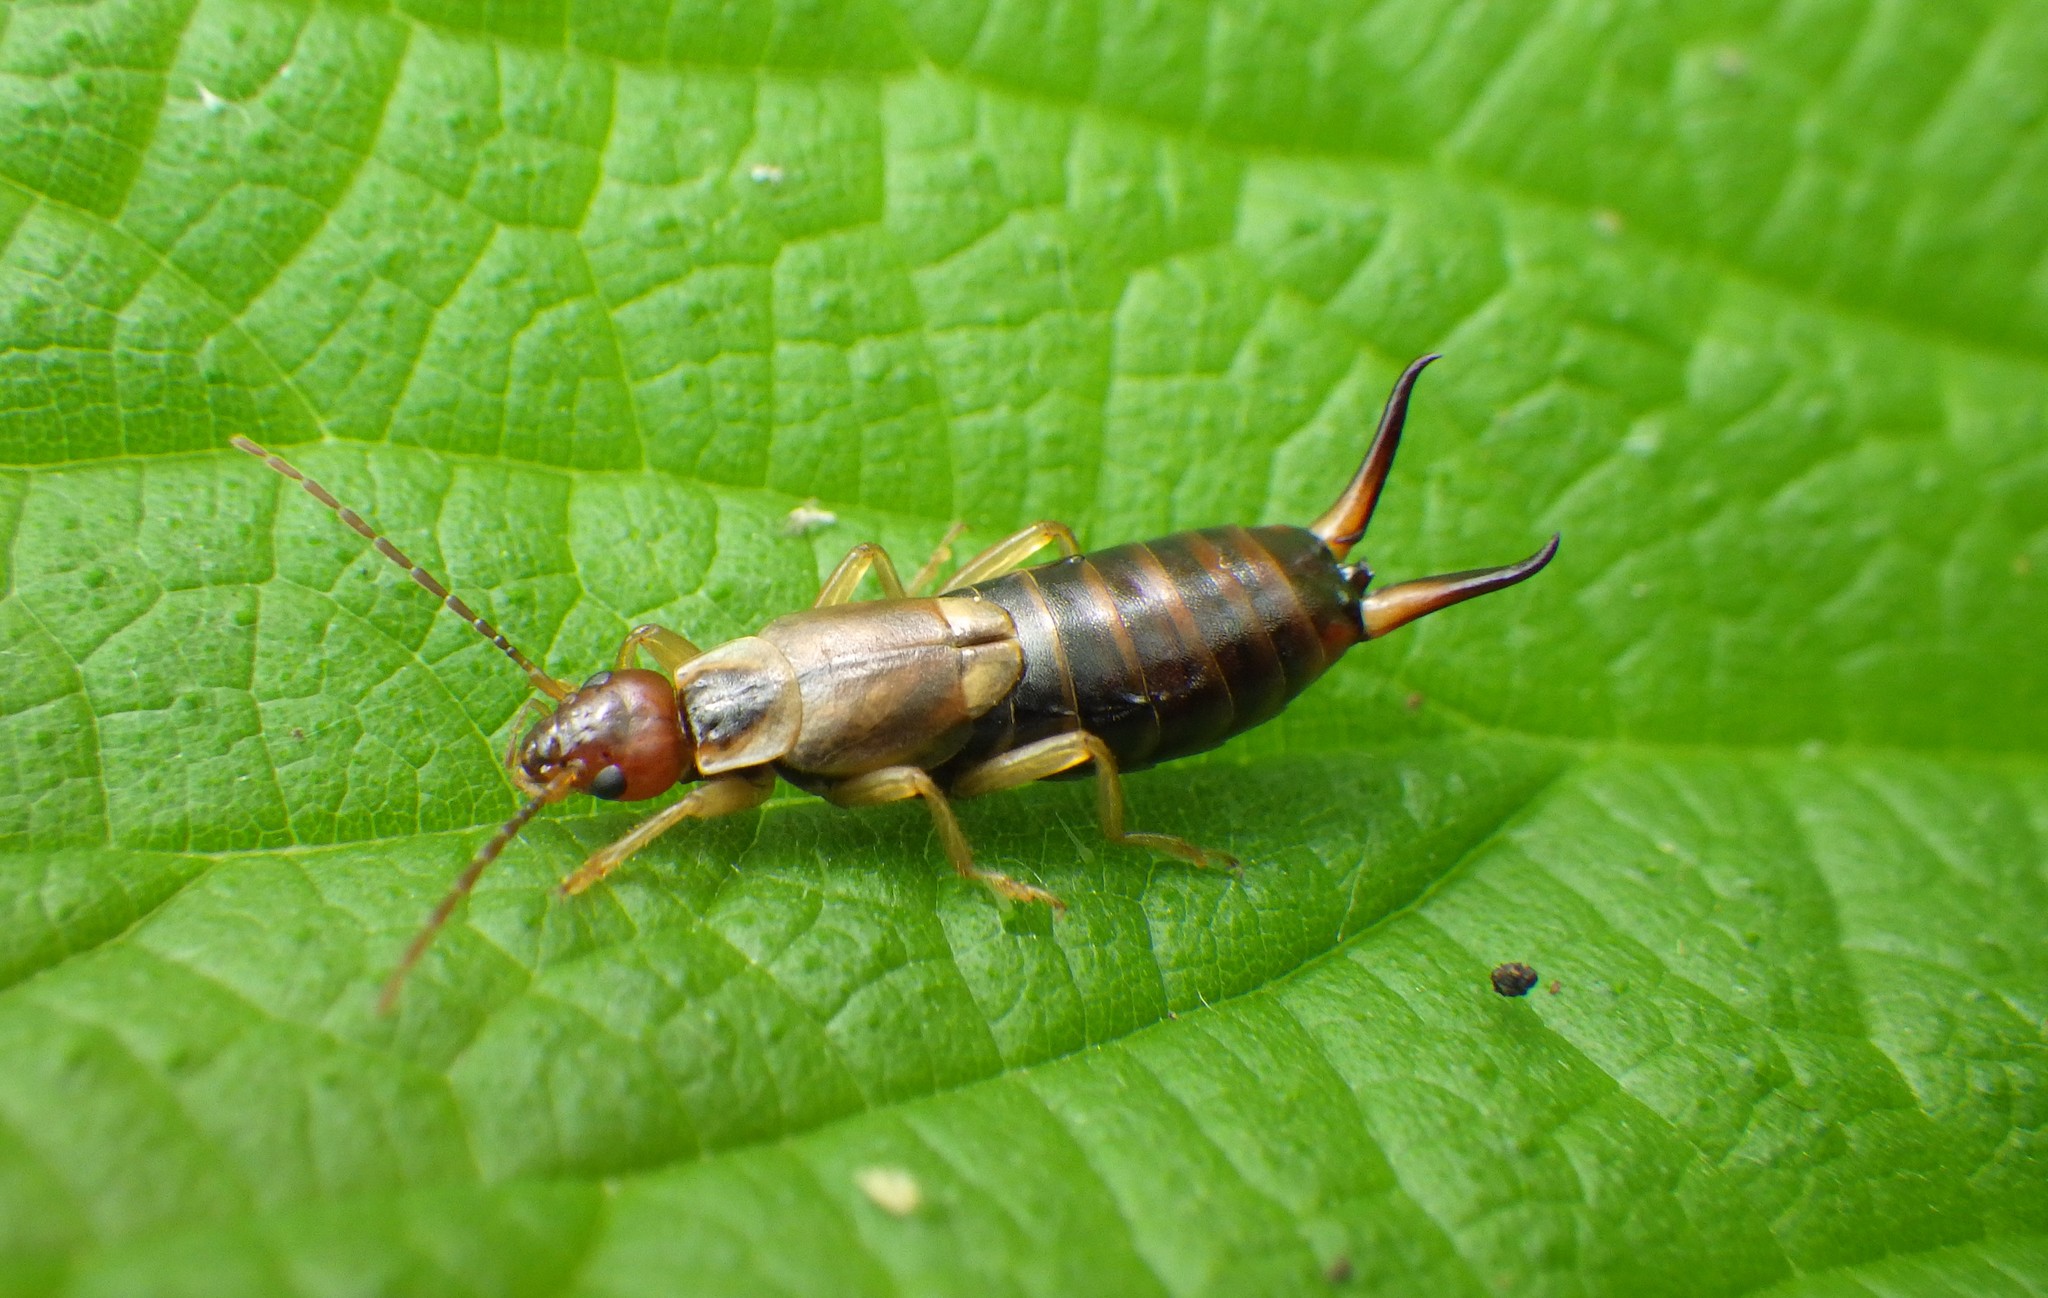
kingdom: Animalia
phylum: Arthropoda
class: Insecta
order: Dermaptera
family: Forficulidae
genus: Forficula
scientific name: Forficula
